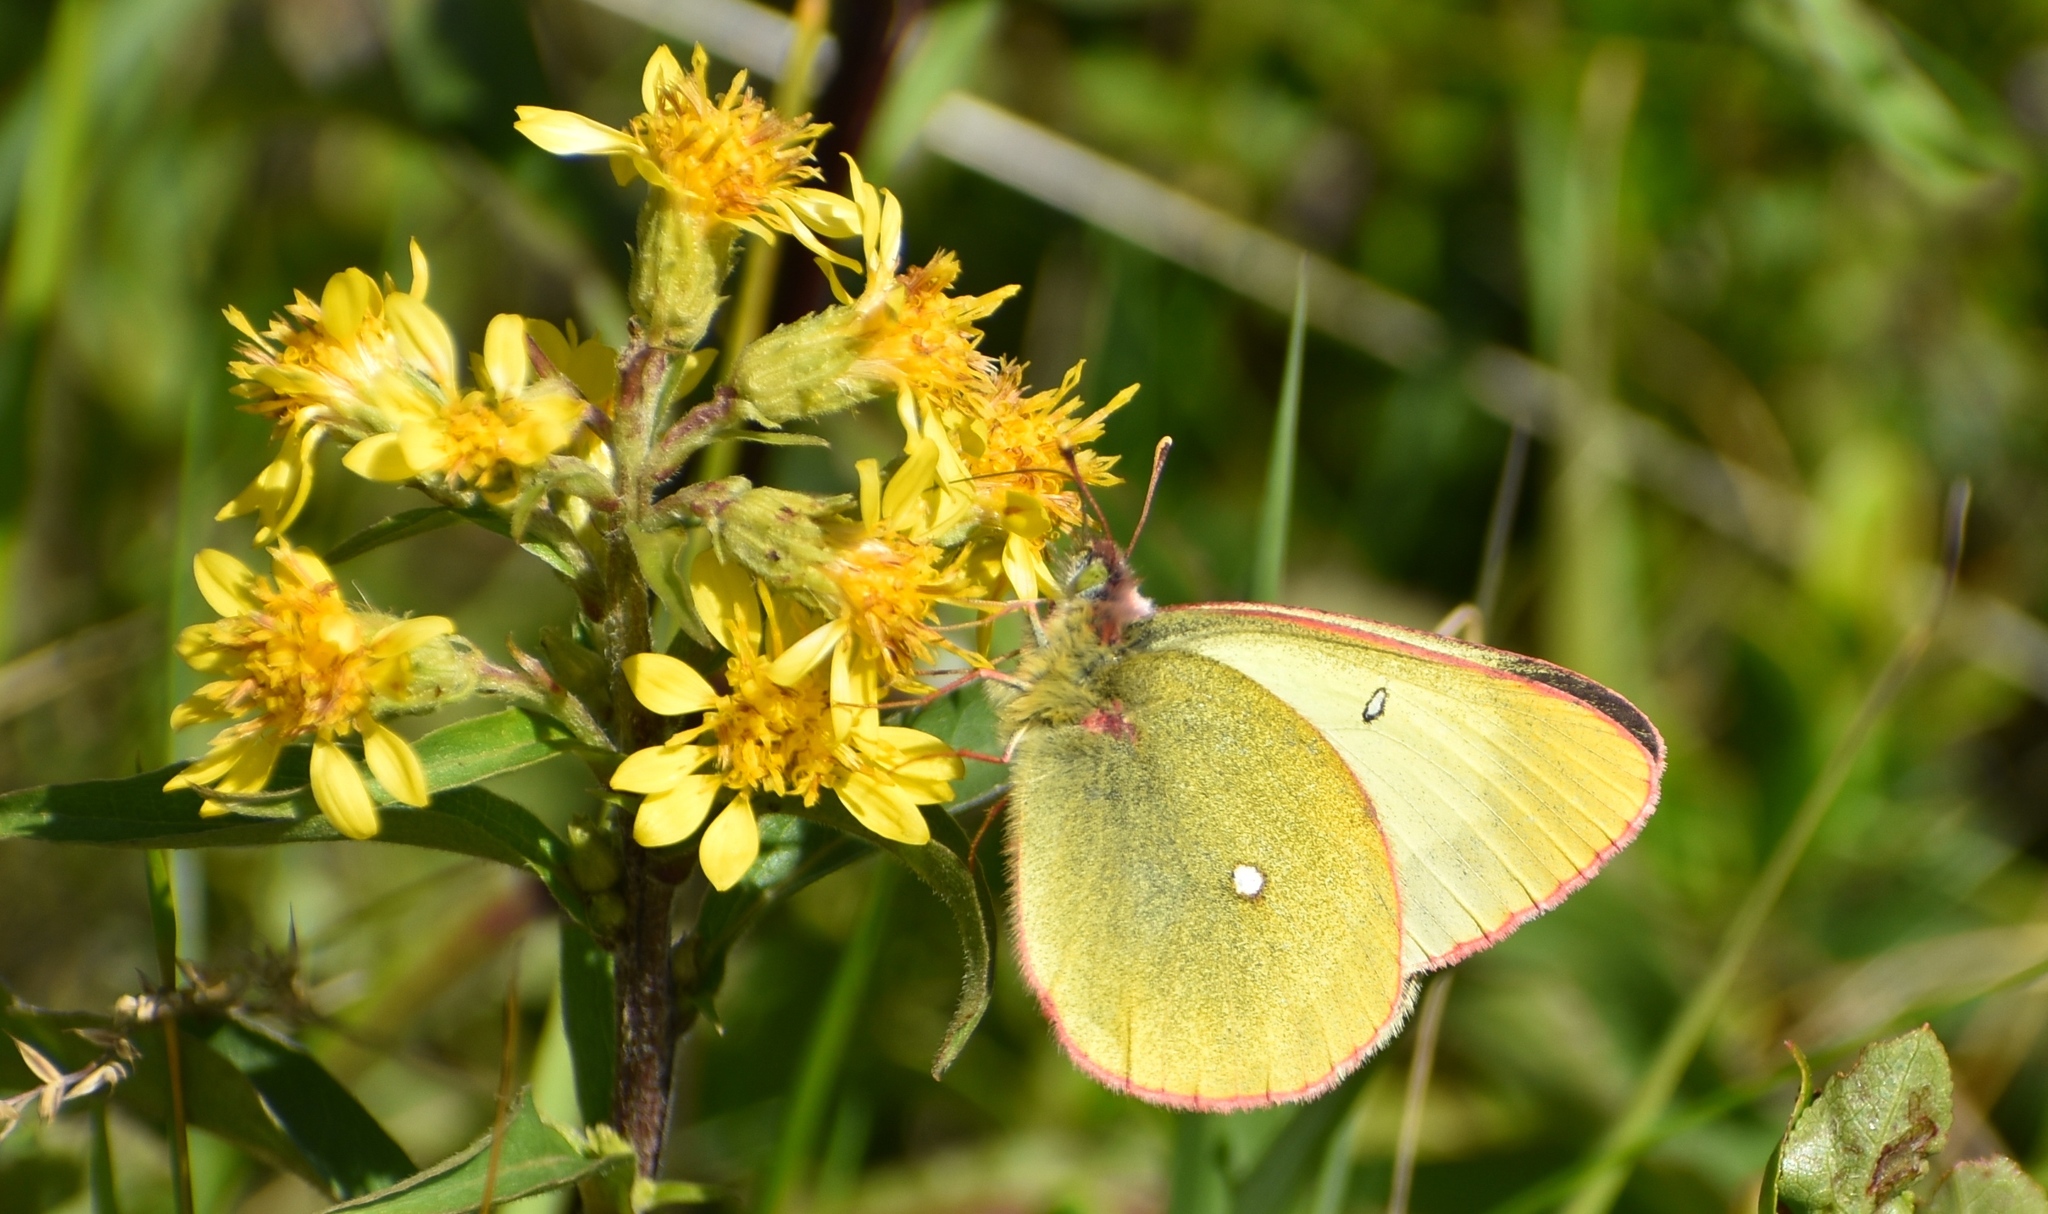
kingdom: Animalia
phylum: Arthropoda
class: Insecta
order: Lepidoptera
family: Pieridae
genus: Colias
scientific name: Colias palaeno
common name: Moorland clouded yellow
